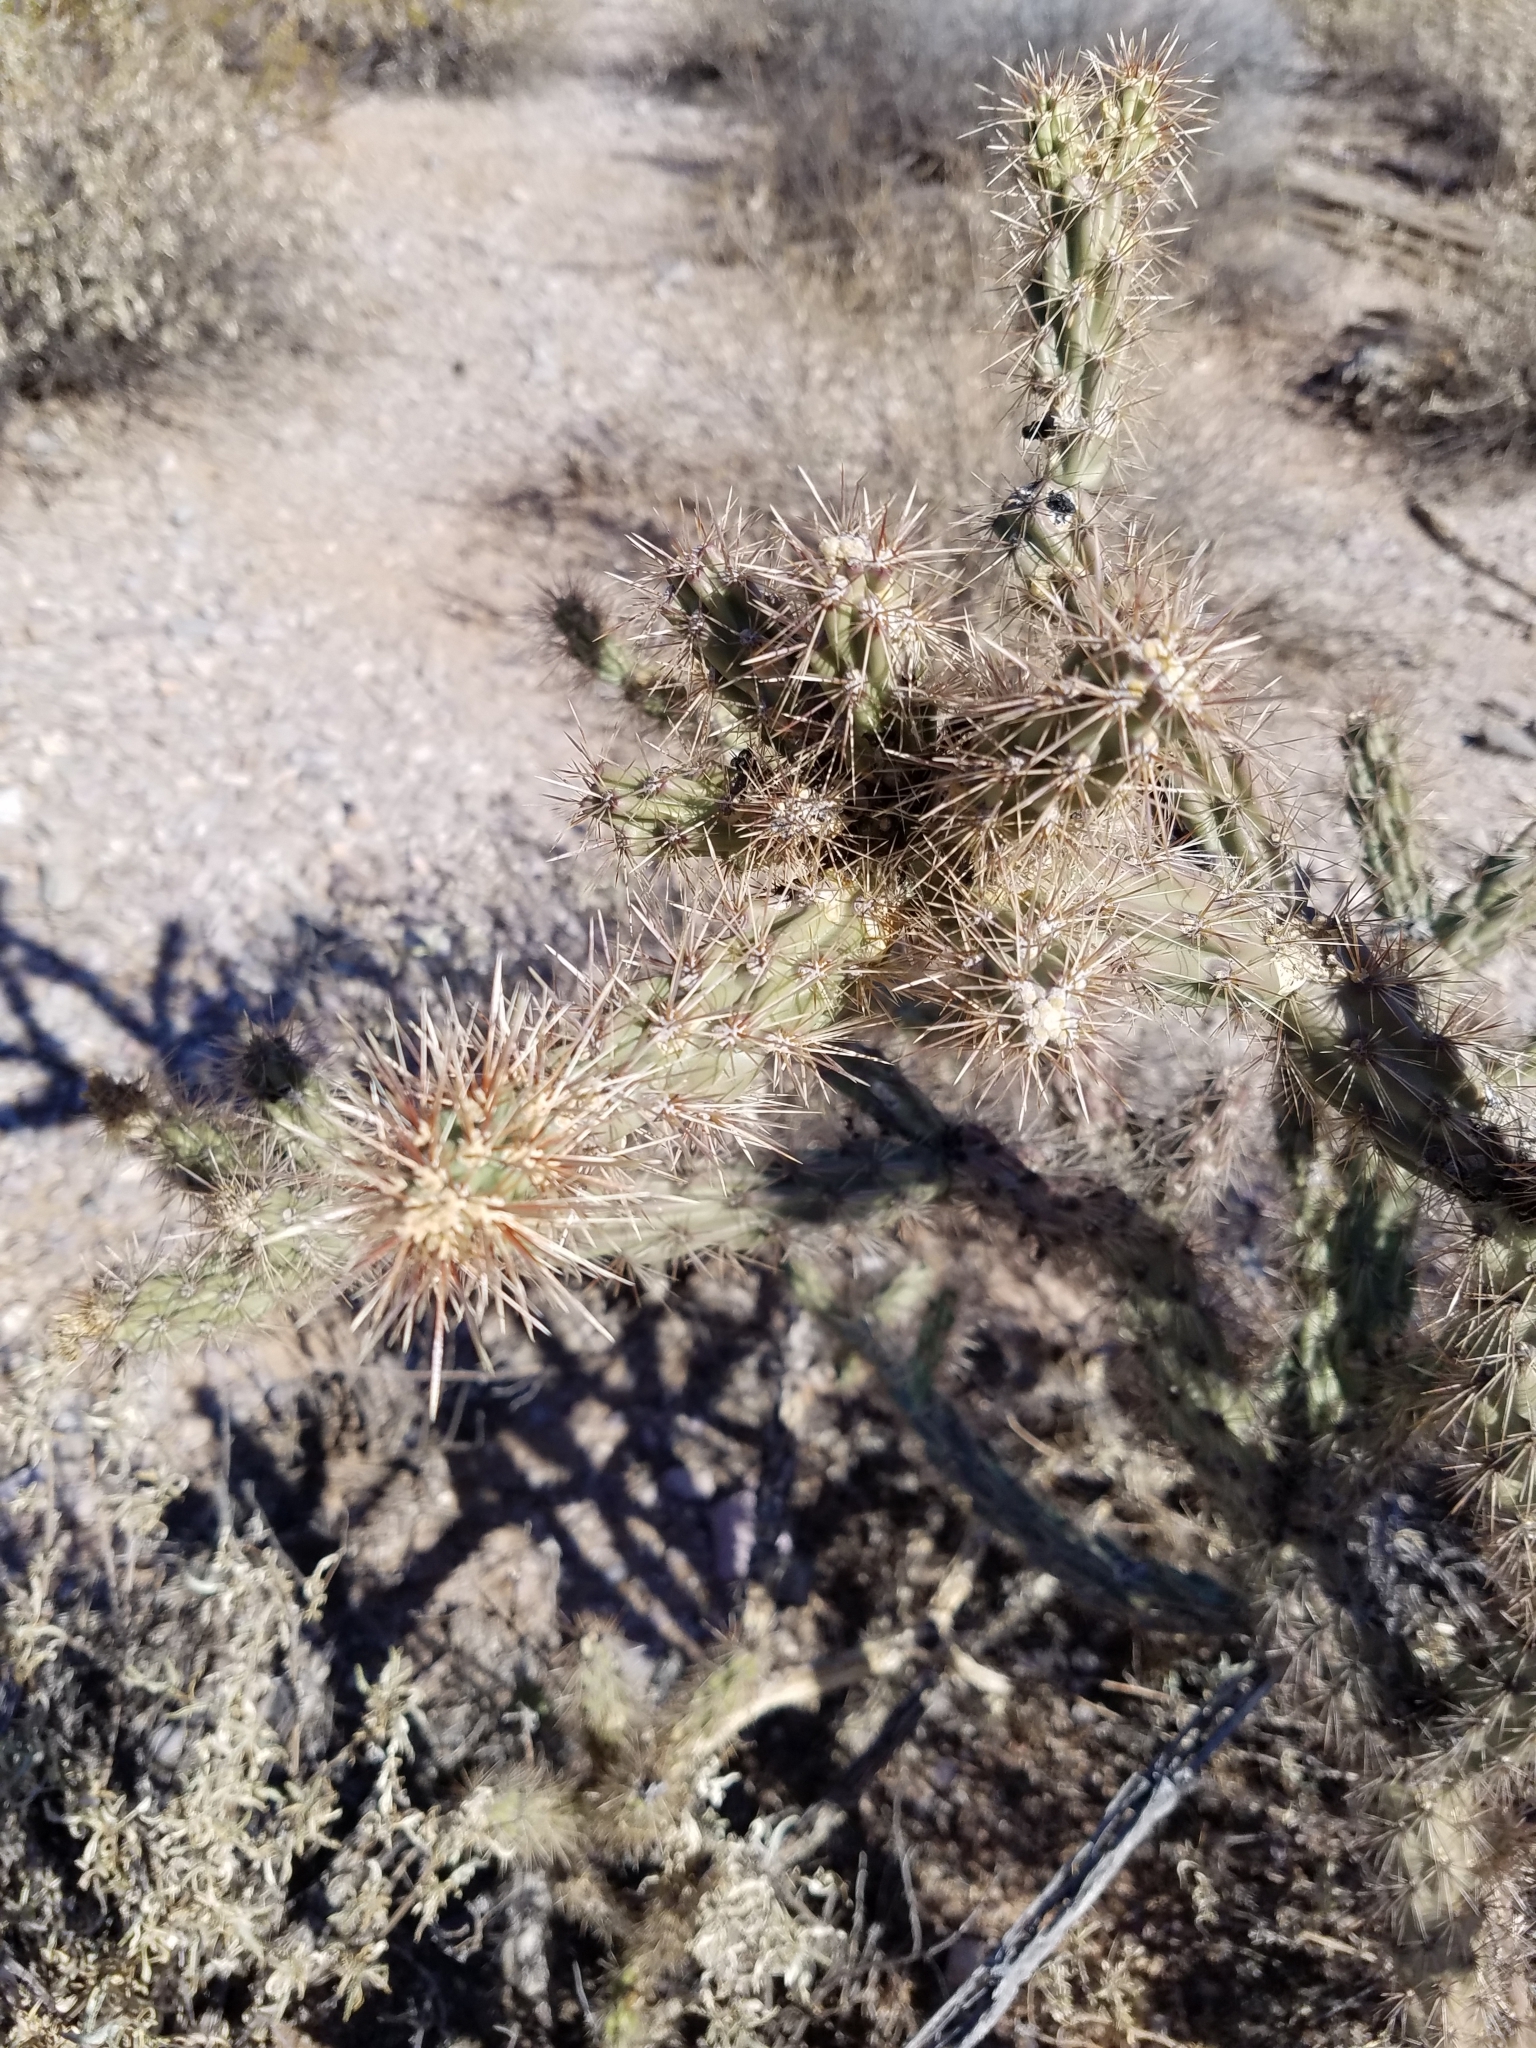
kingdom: Plantae
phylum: Tracheophyta
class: Magnoliopsida
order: Caryophyllales
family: Cactaceae
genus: Cylindropuntia
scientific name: Cylindropuntia acanthocarpa
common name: Buckhorn cholla
